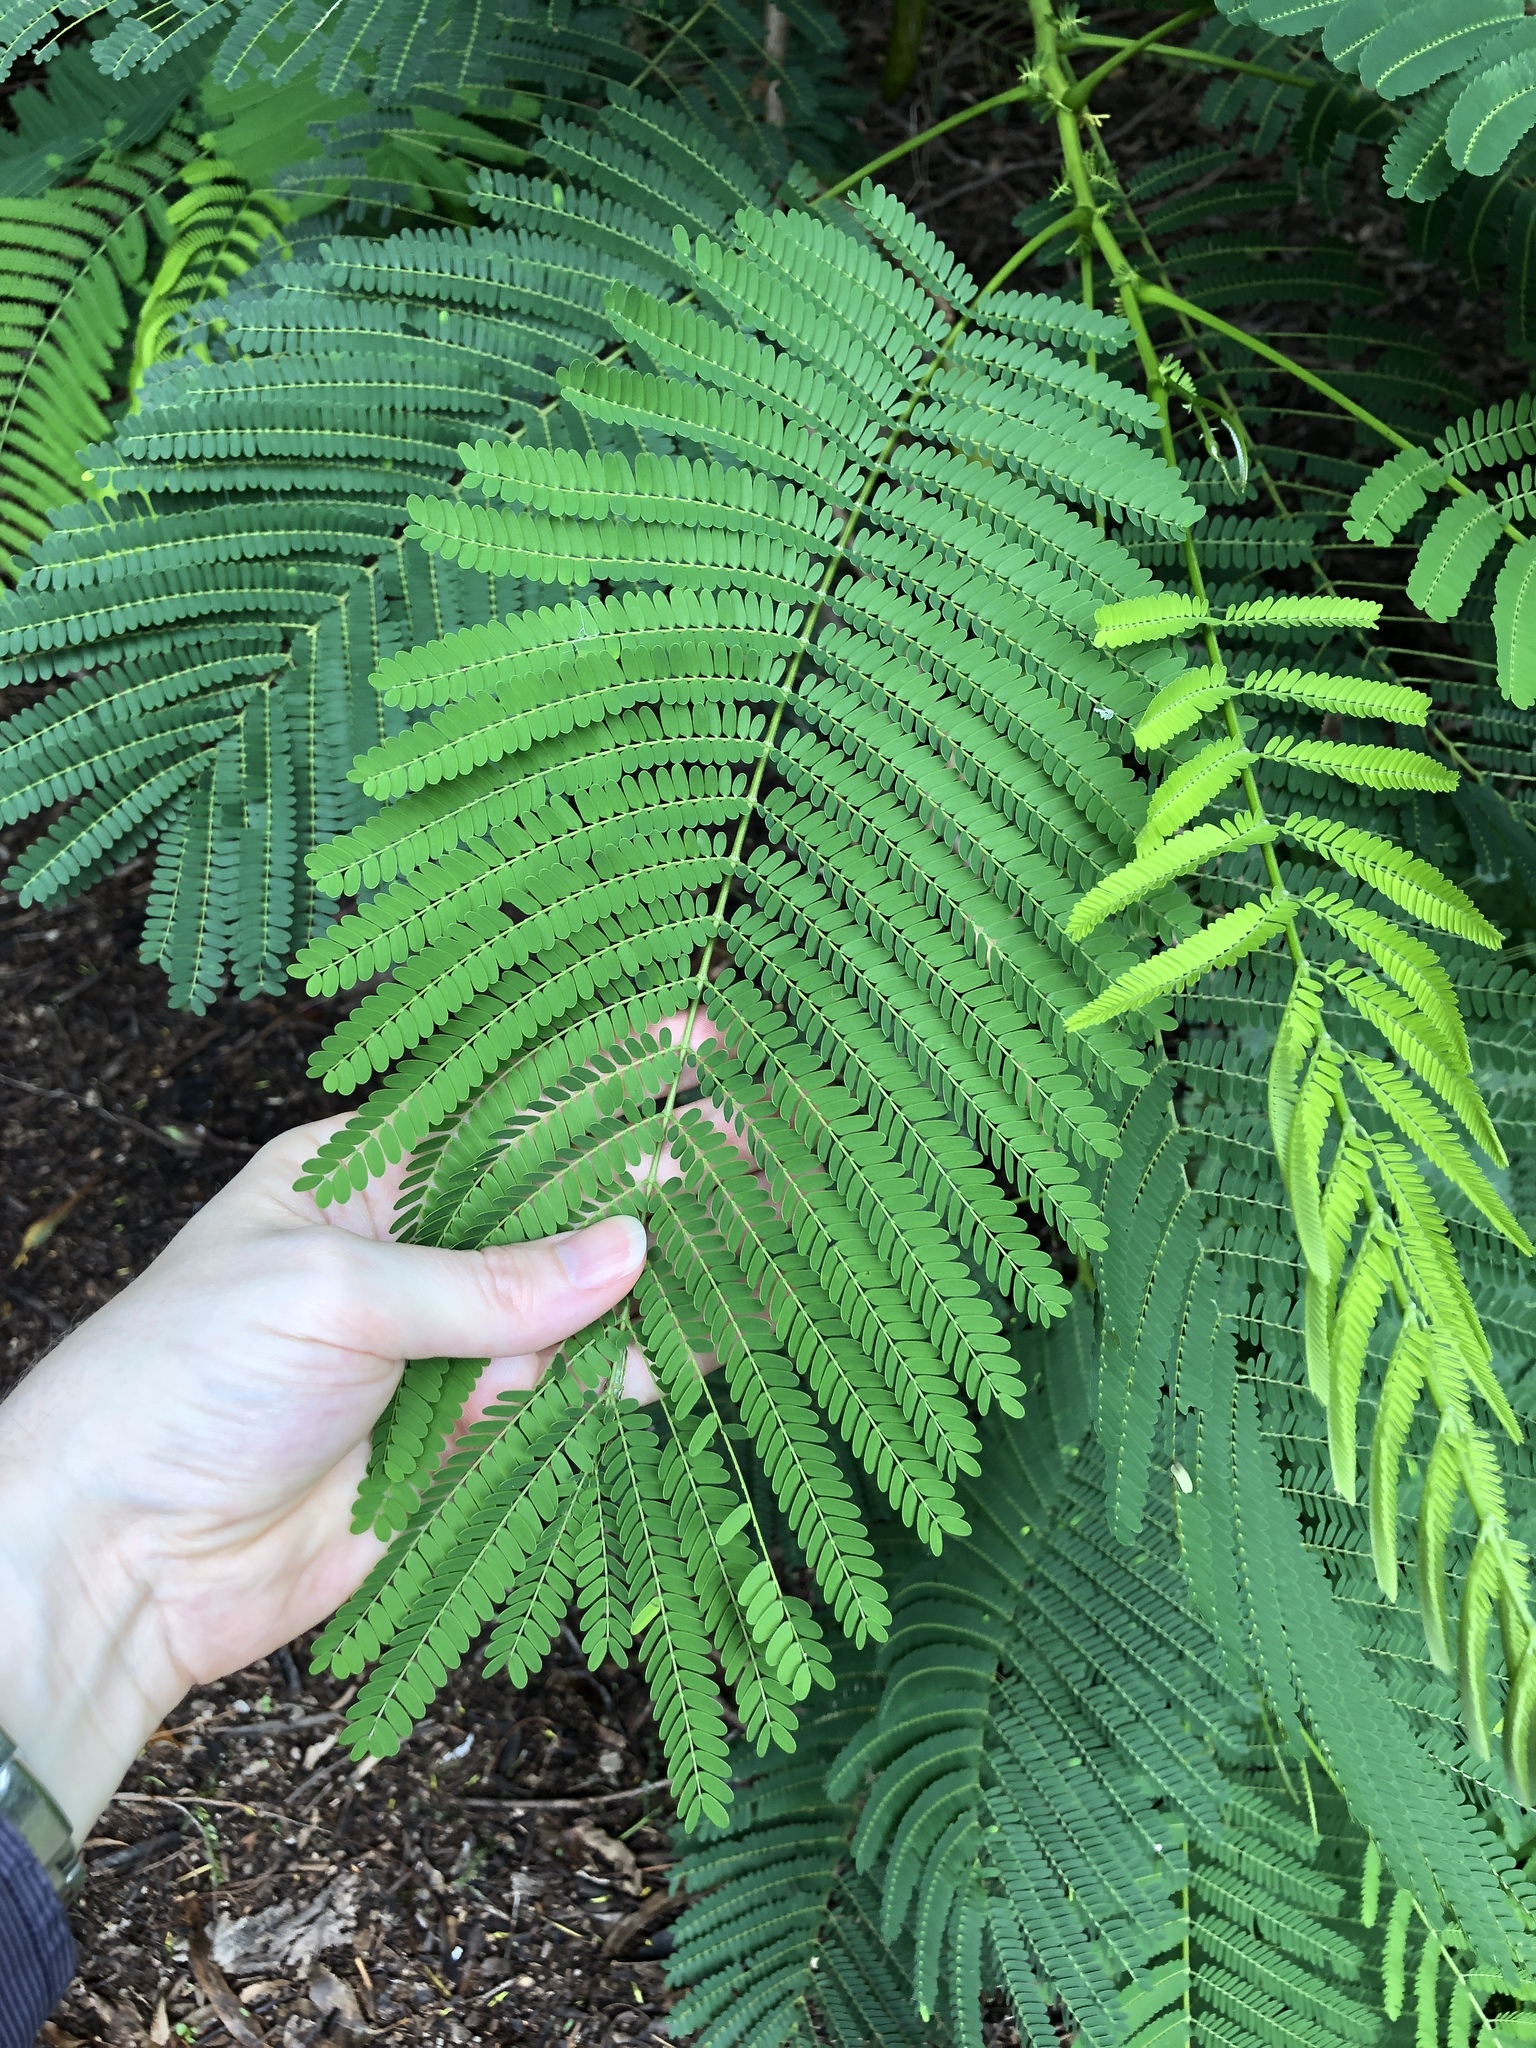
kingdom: Plantae
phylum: Tracheophyta
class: Magnoliopsida
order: Fabales
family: Fabaceae
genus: Delonix
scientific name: Delonix regia
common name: Royal poinciana
